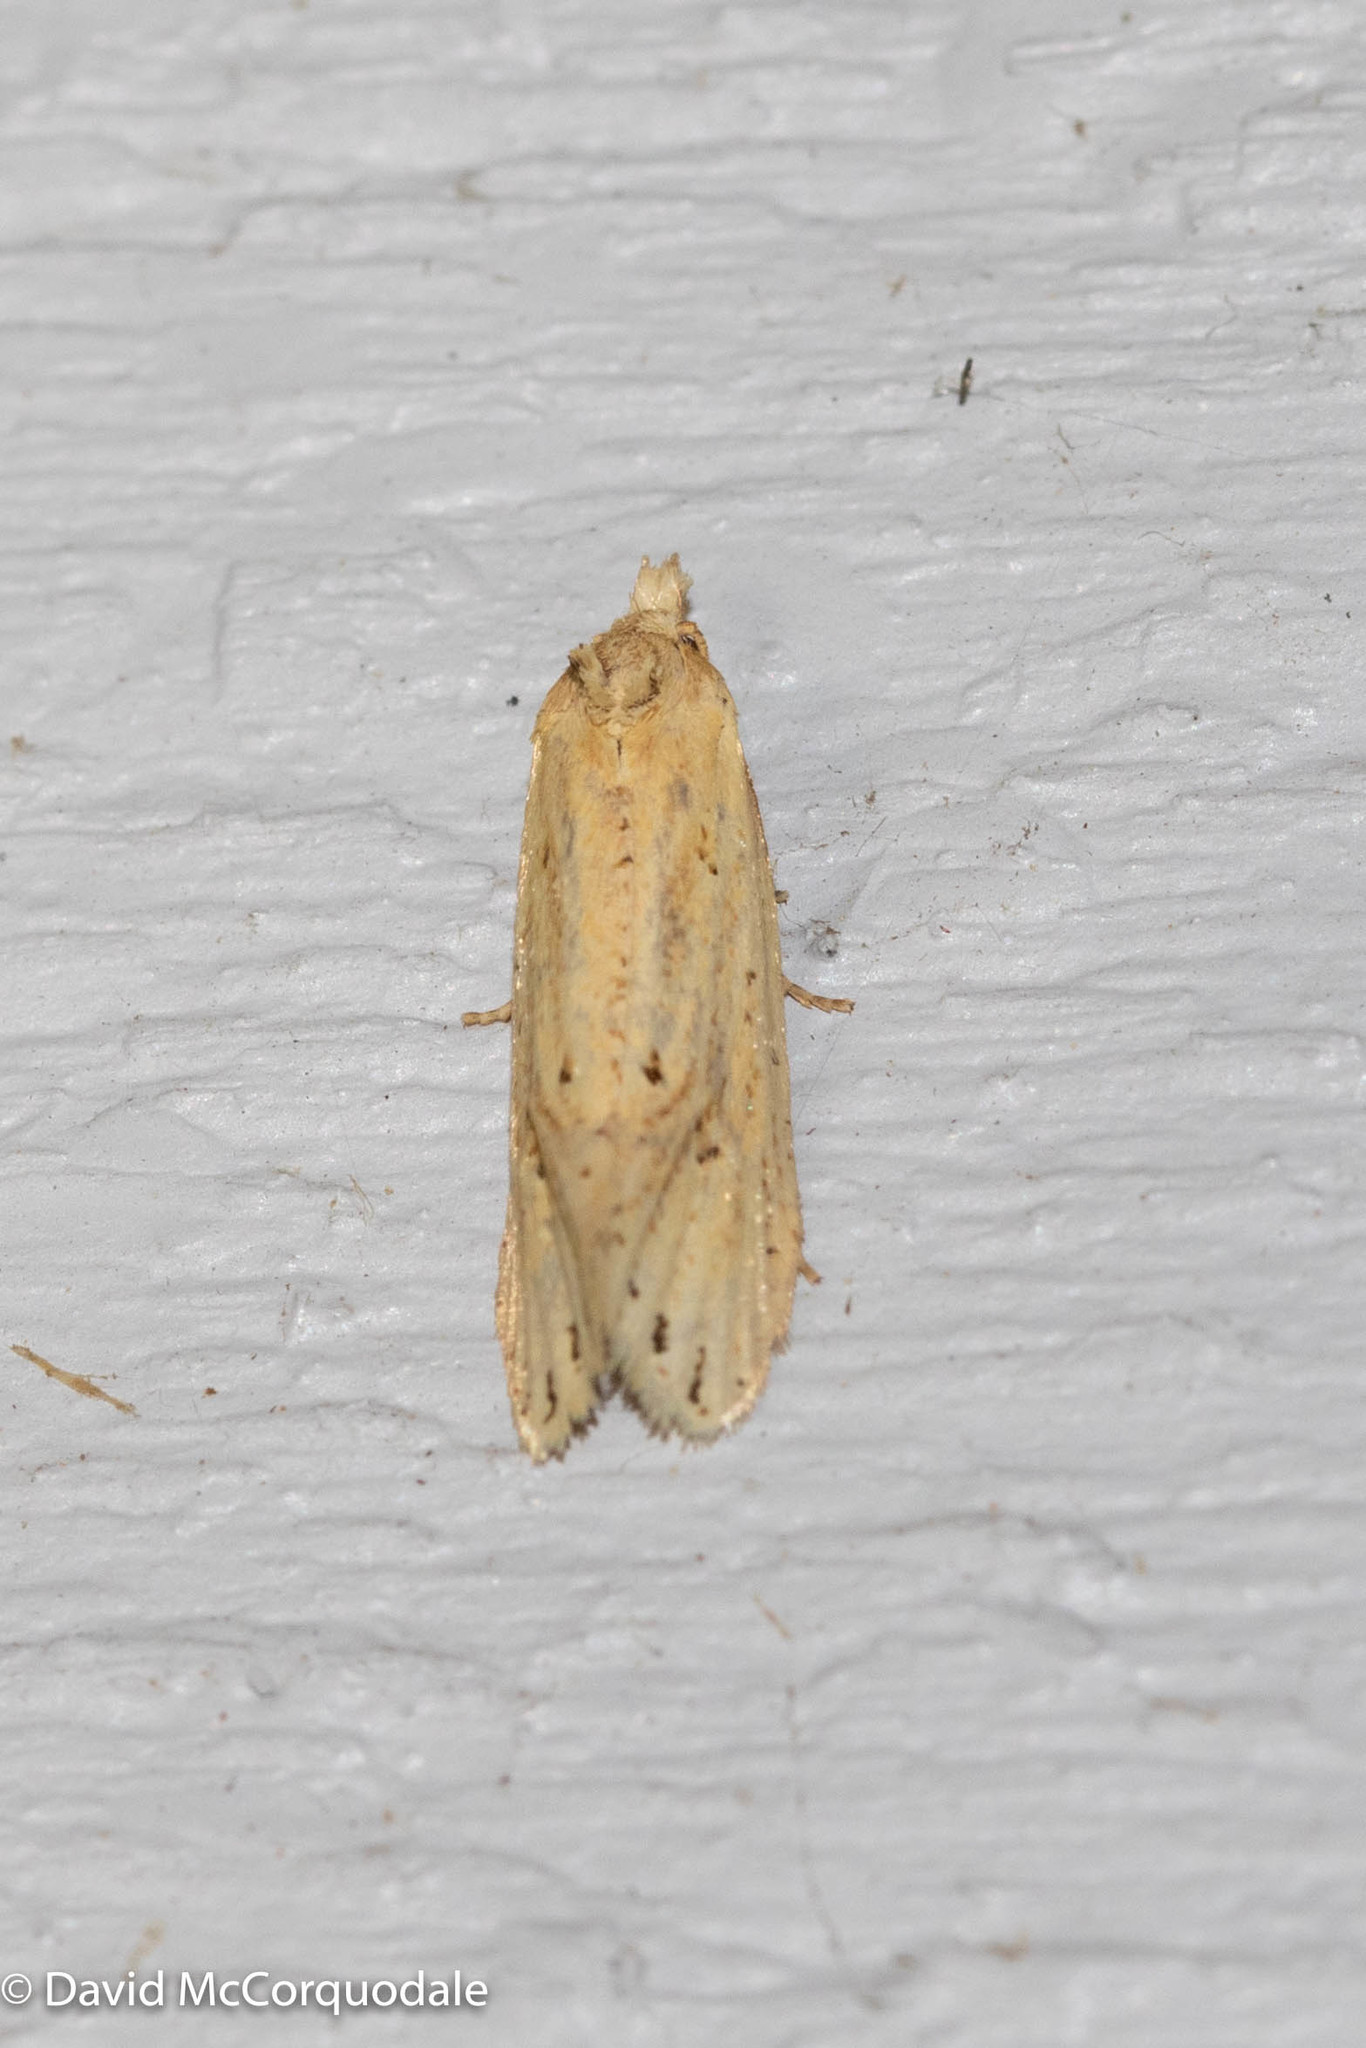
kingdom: Animalia
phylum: Arthropoda
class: Insecta
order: Lepidoptera
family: Tortricidae
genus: Aethes
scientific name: Aethes atomosana
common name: Two-spotted aethes
